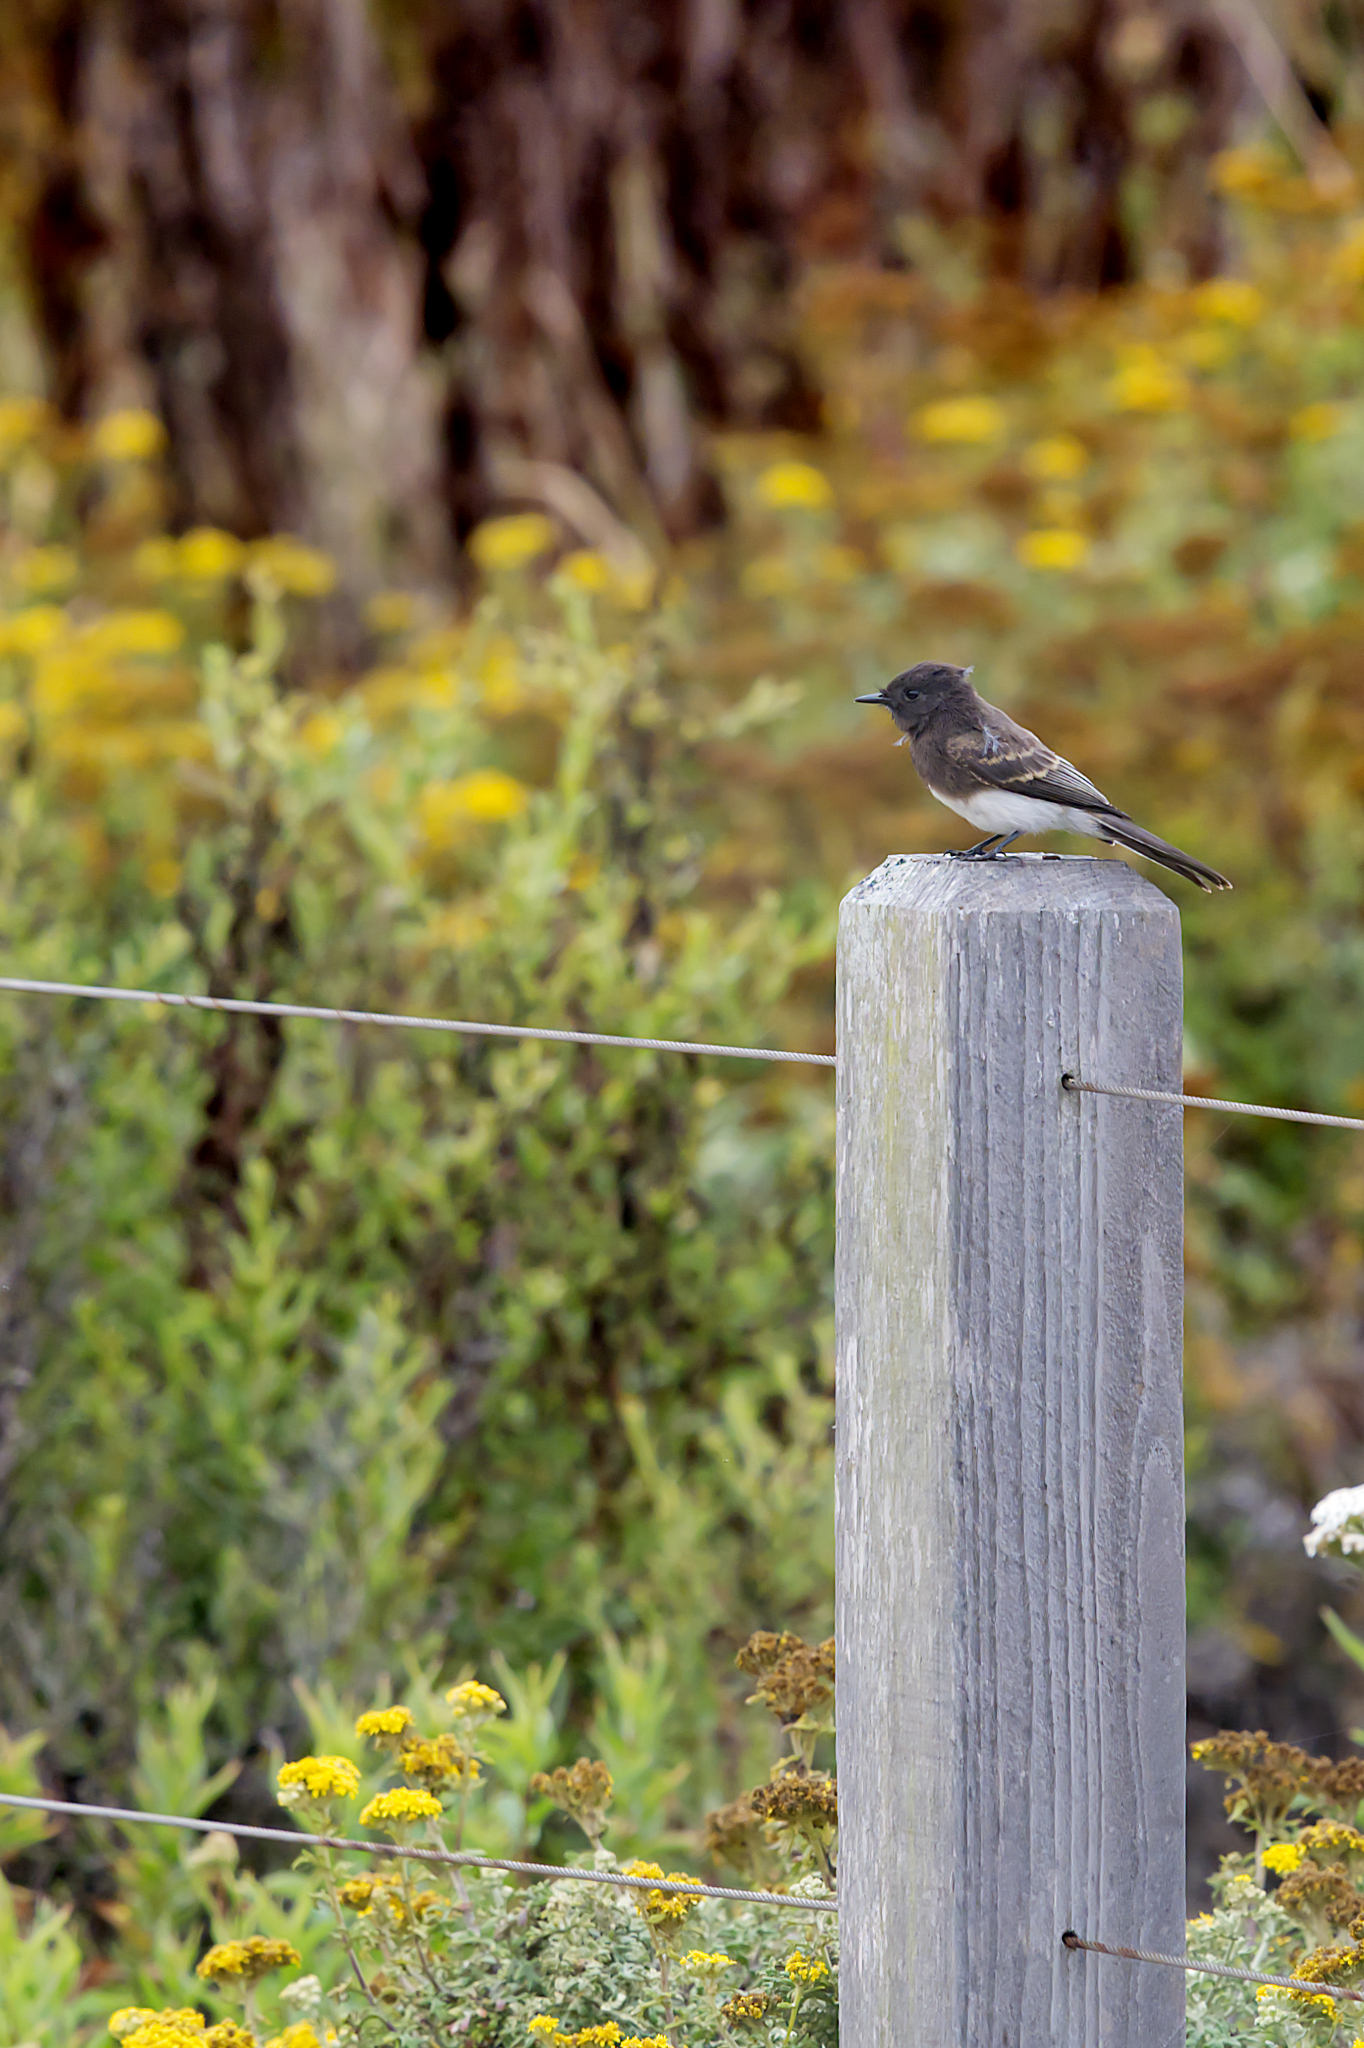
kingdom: Animalia
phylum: Chordata
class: Aves
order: Passeriformes
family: Tyrannidae
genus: Sayornis
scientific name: Sayornis nigricans
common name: Black phoebe
